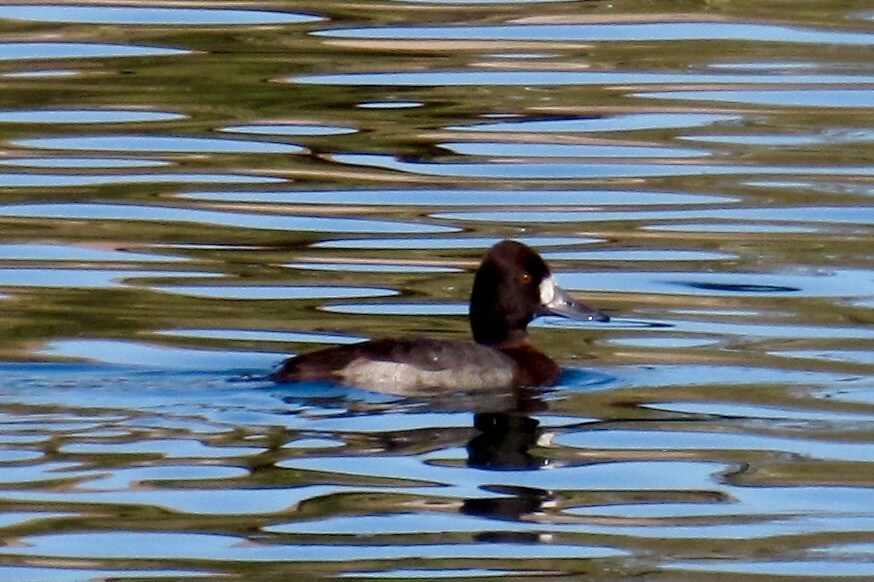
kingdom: Animalia
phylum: Chordata
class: Aves
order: Anseriformes
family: Anatidae
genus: Aythya
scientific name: Aythya affinis
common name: Lesser scaup
